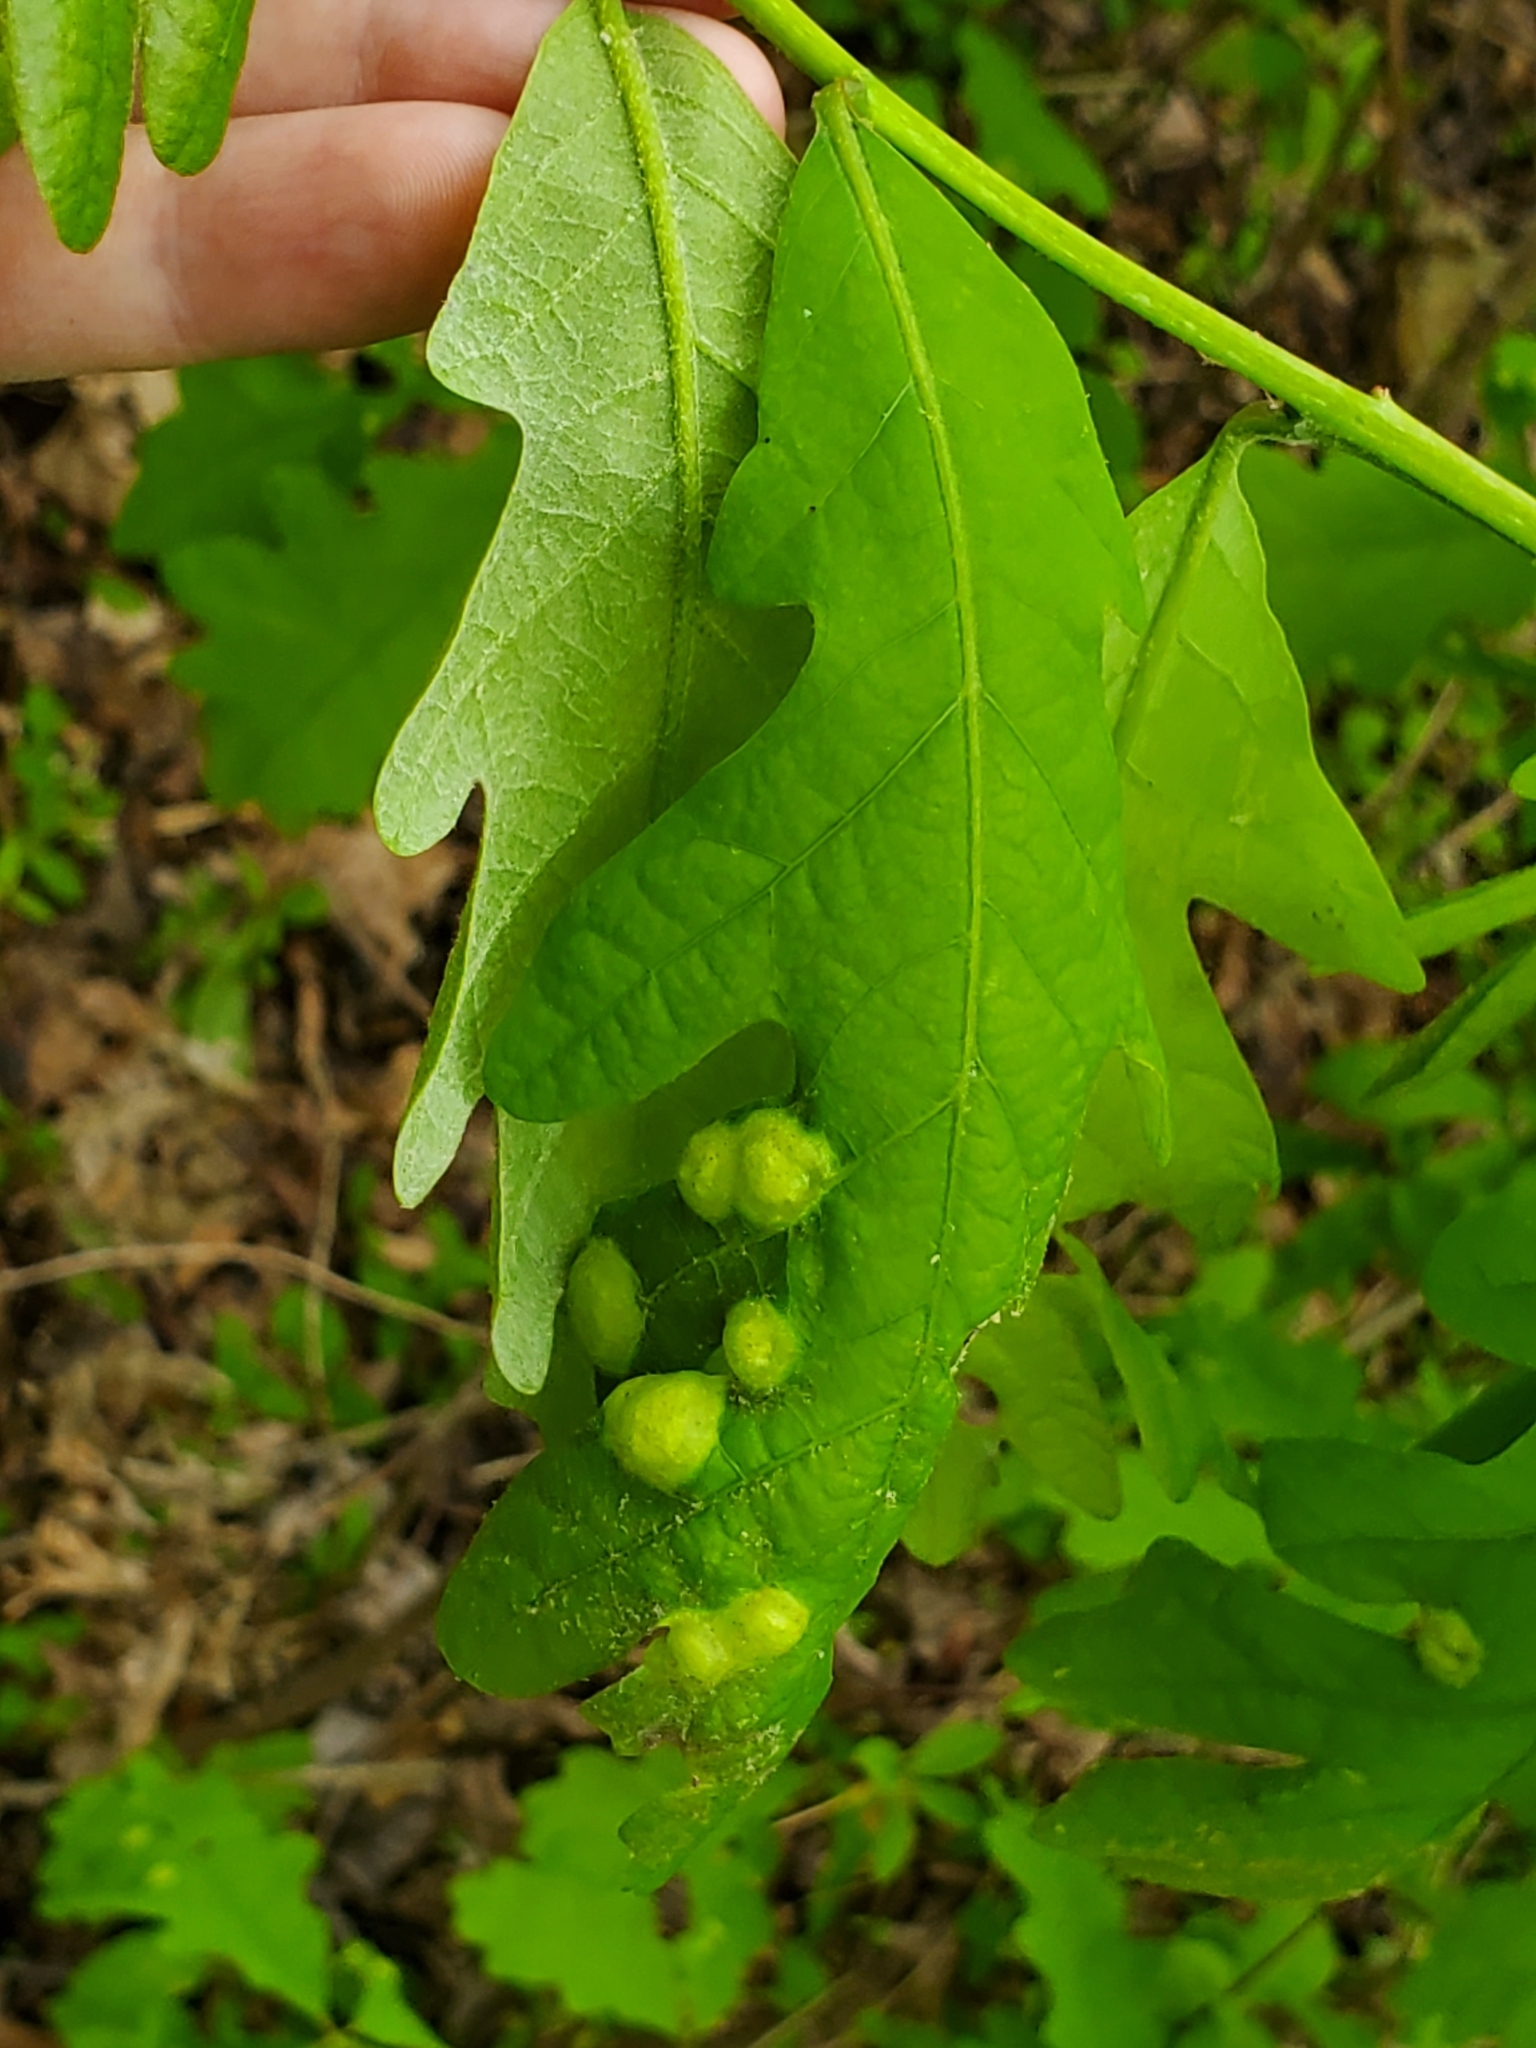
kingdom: Animalia
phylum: Arthropoda
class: Insecta
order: Hymenoptera
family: Cynipidae
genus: Callirhytis
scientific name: Callirhytis
